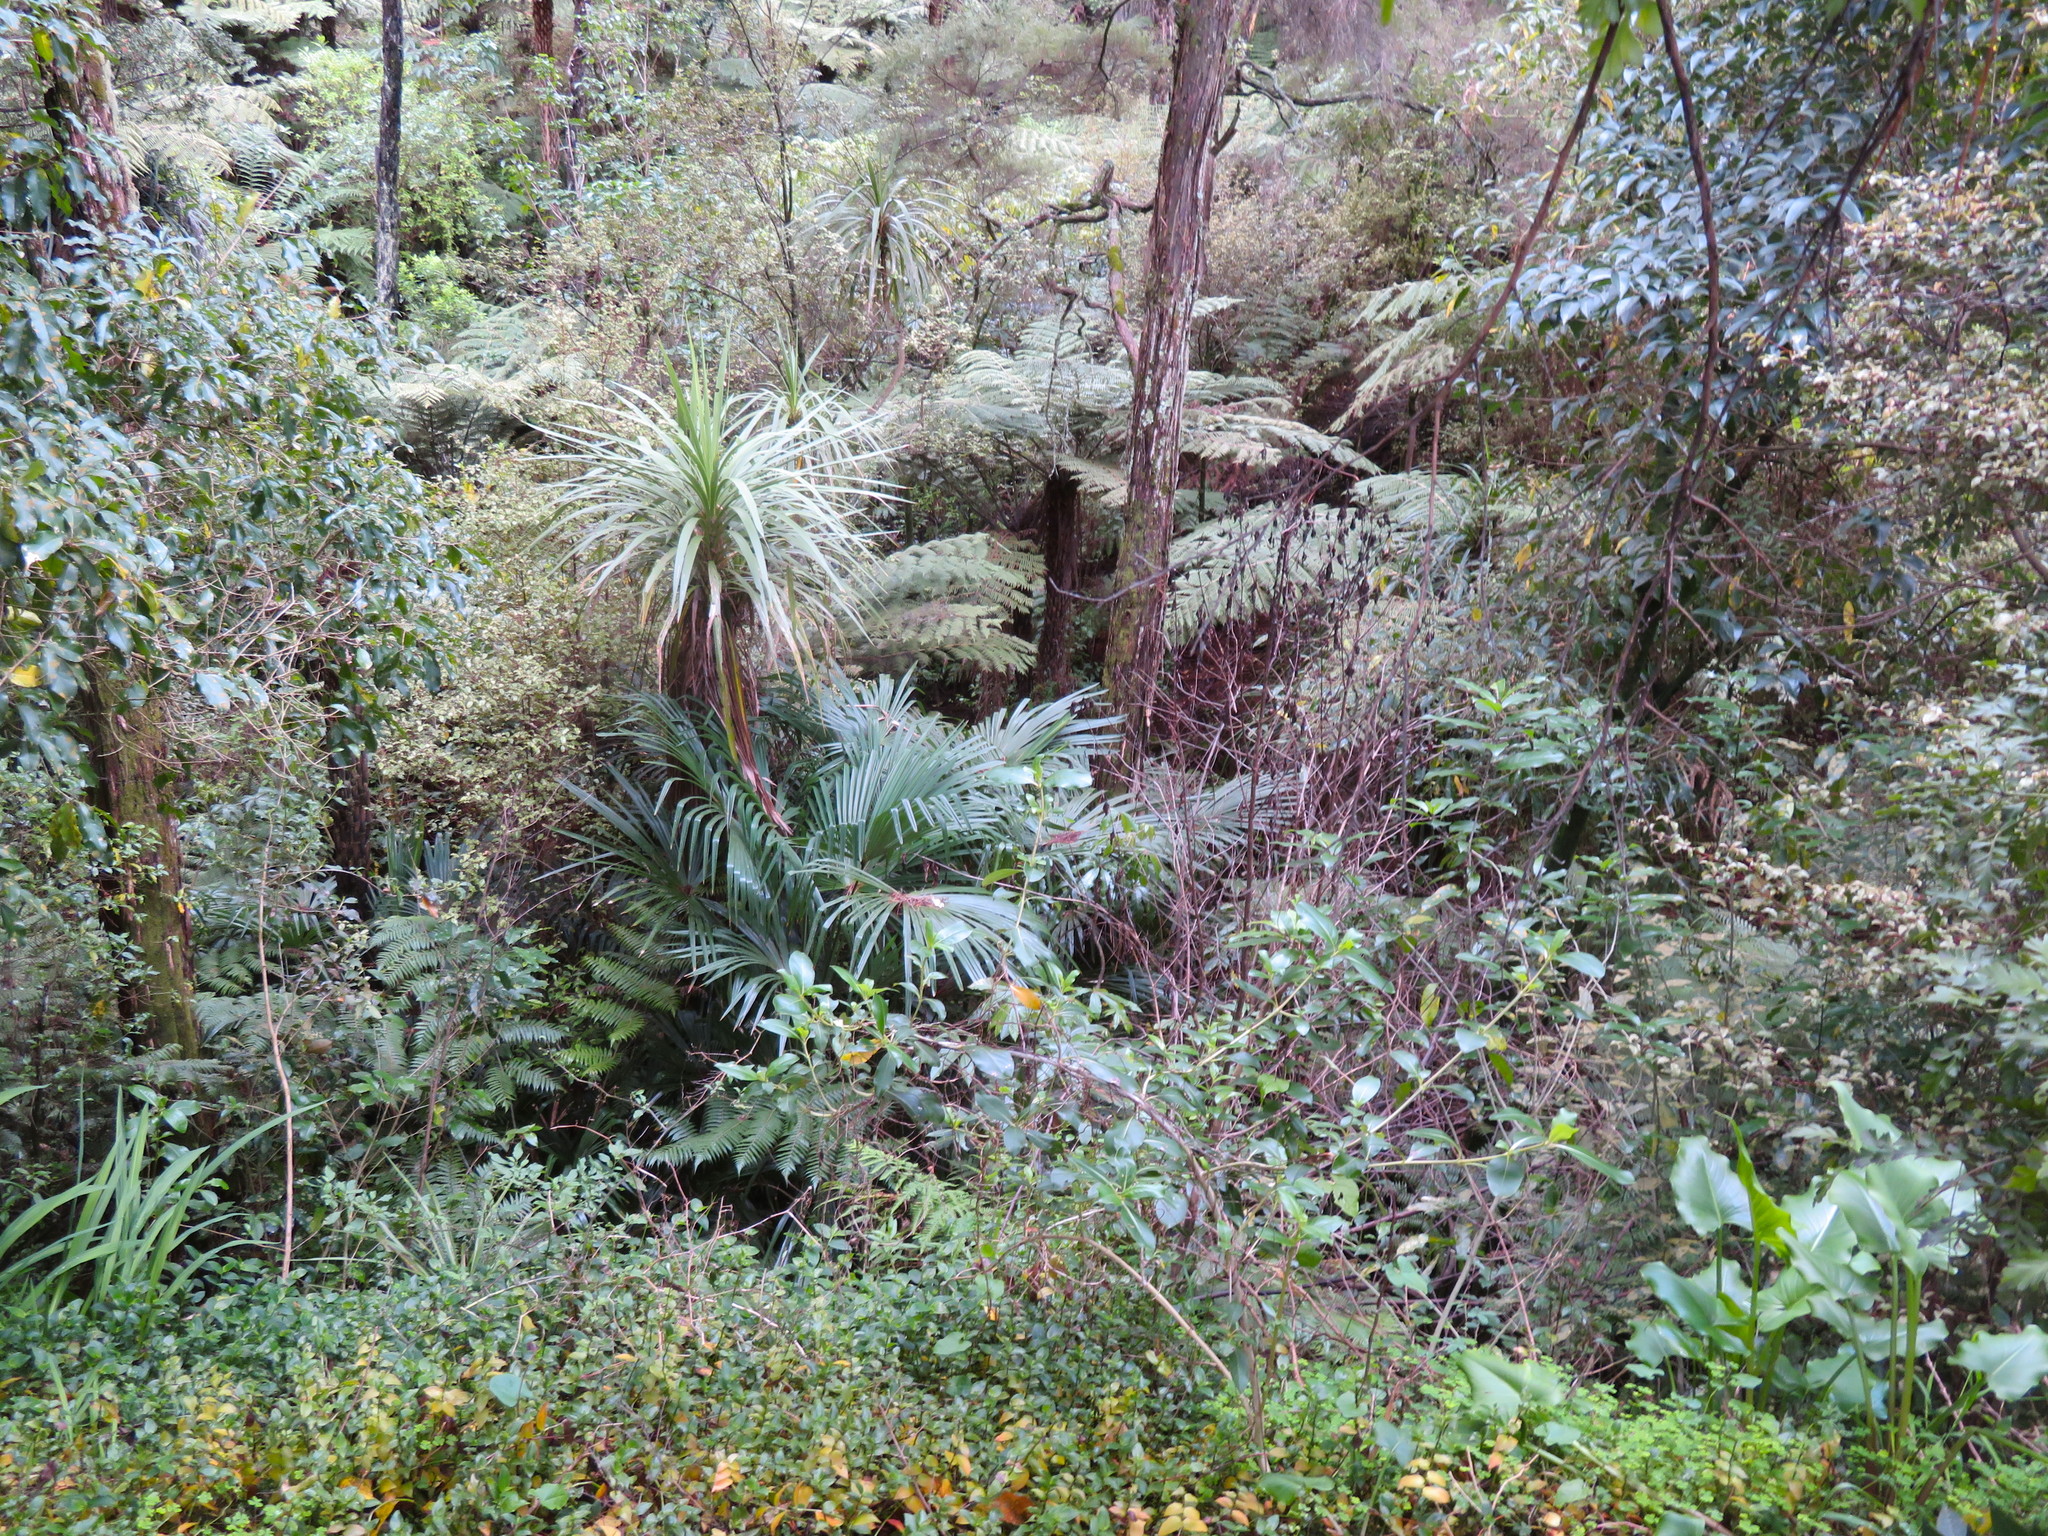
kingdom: Plantae
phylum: Tracheophyta
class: Liliopsida
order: Asparagales
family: Asparagaceae
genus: Cordyline
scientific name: Cordyline australis
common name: Cabbage-palm
